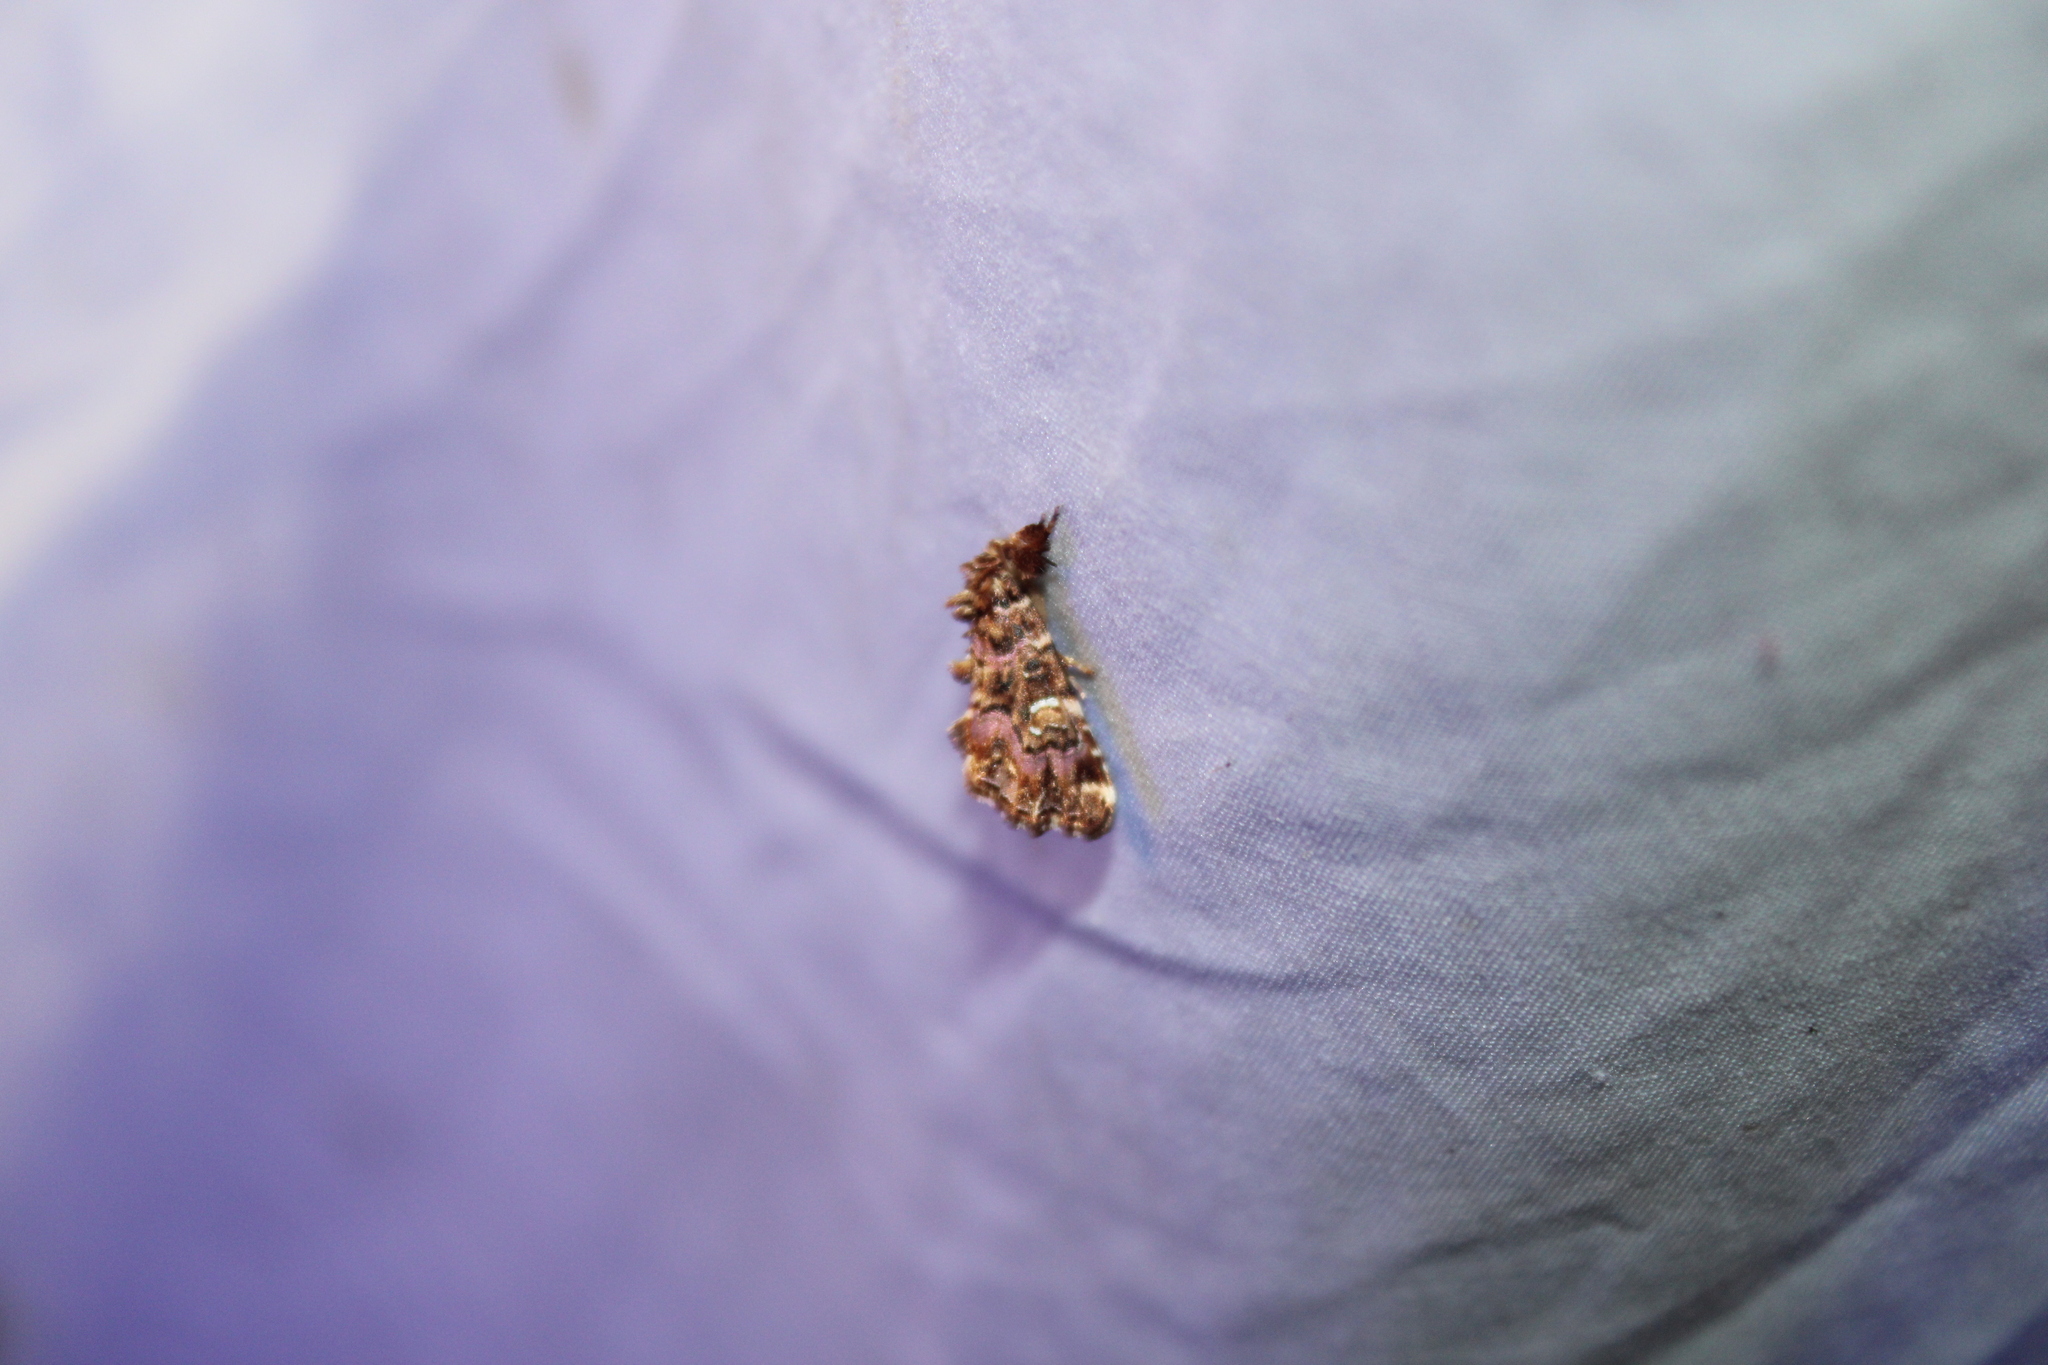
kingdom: Animalia
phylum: Arthropoda
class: Insecta
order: Lepidoptera
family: Noctuidae
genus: Callopistria
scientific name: Callopistria mollissima
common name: Pink-shaded fern moth
